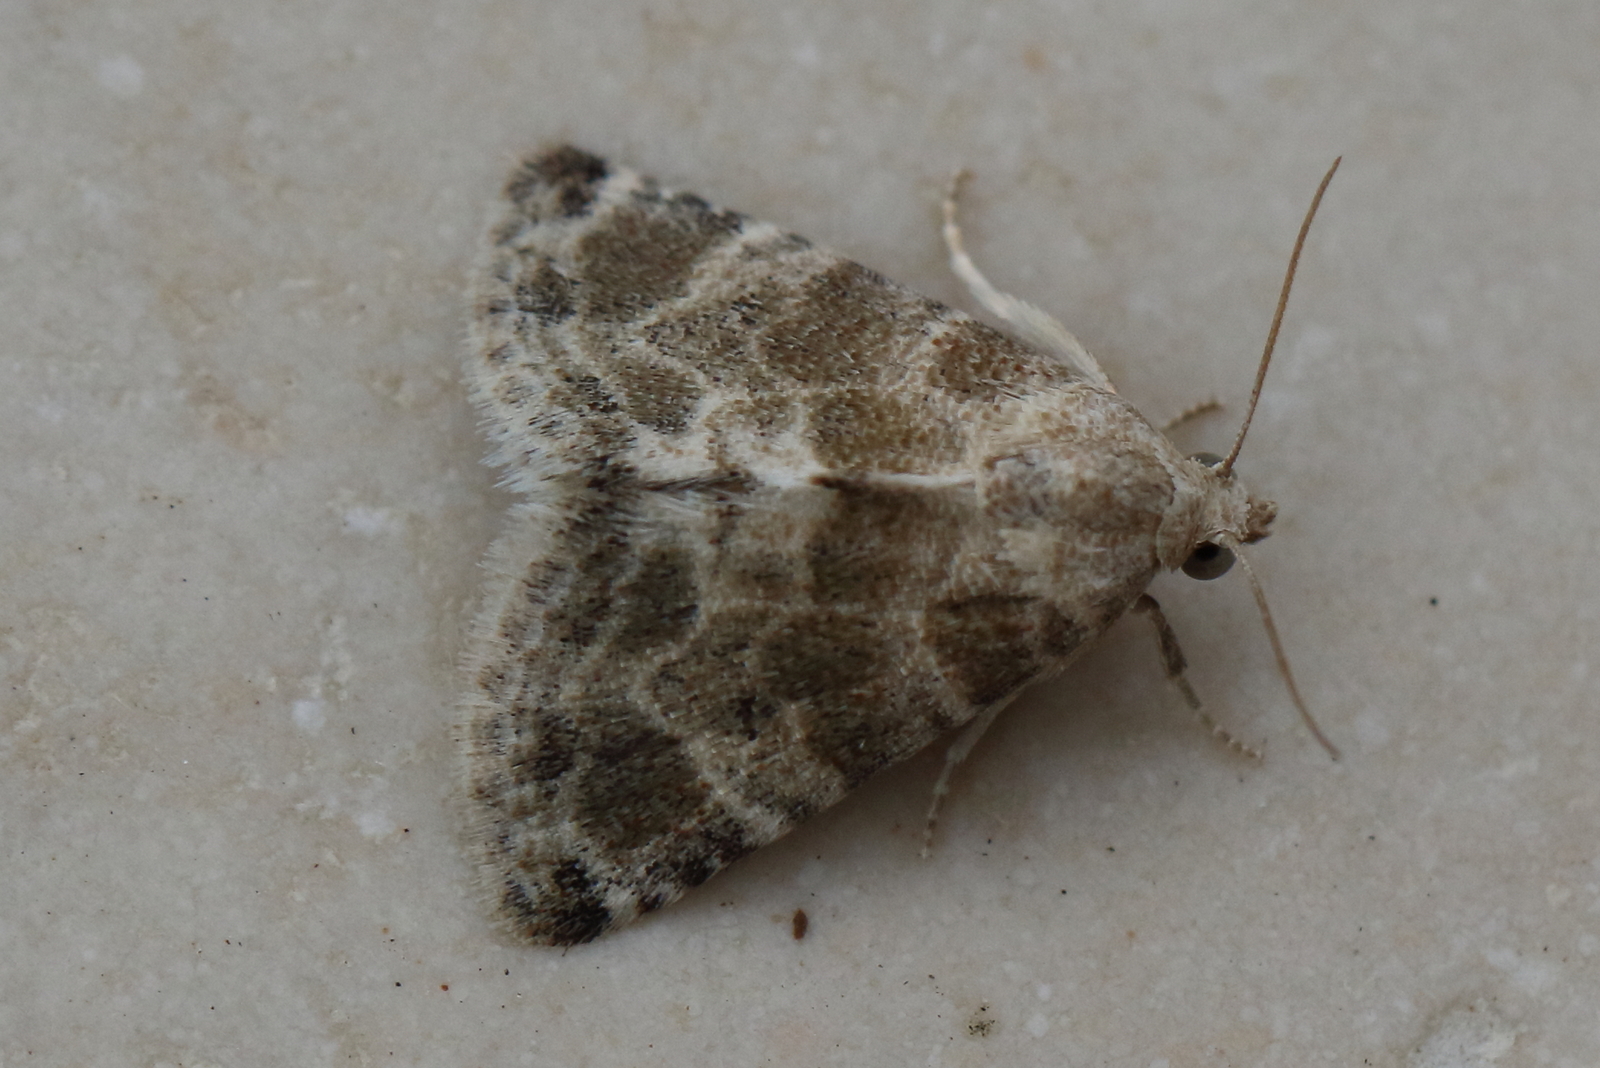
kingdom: Animalia
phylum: Arthropoda
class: Insecta
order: Lepidoptera
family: Noctuidae
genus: Eublemma
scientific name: Eublemma glaucochroa
